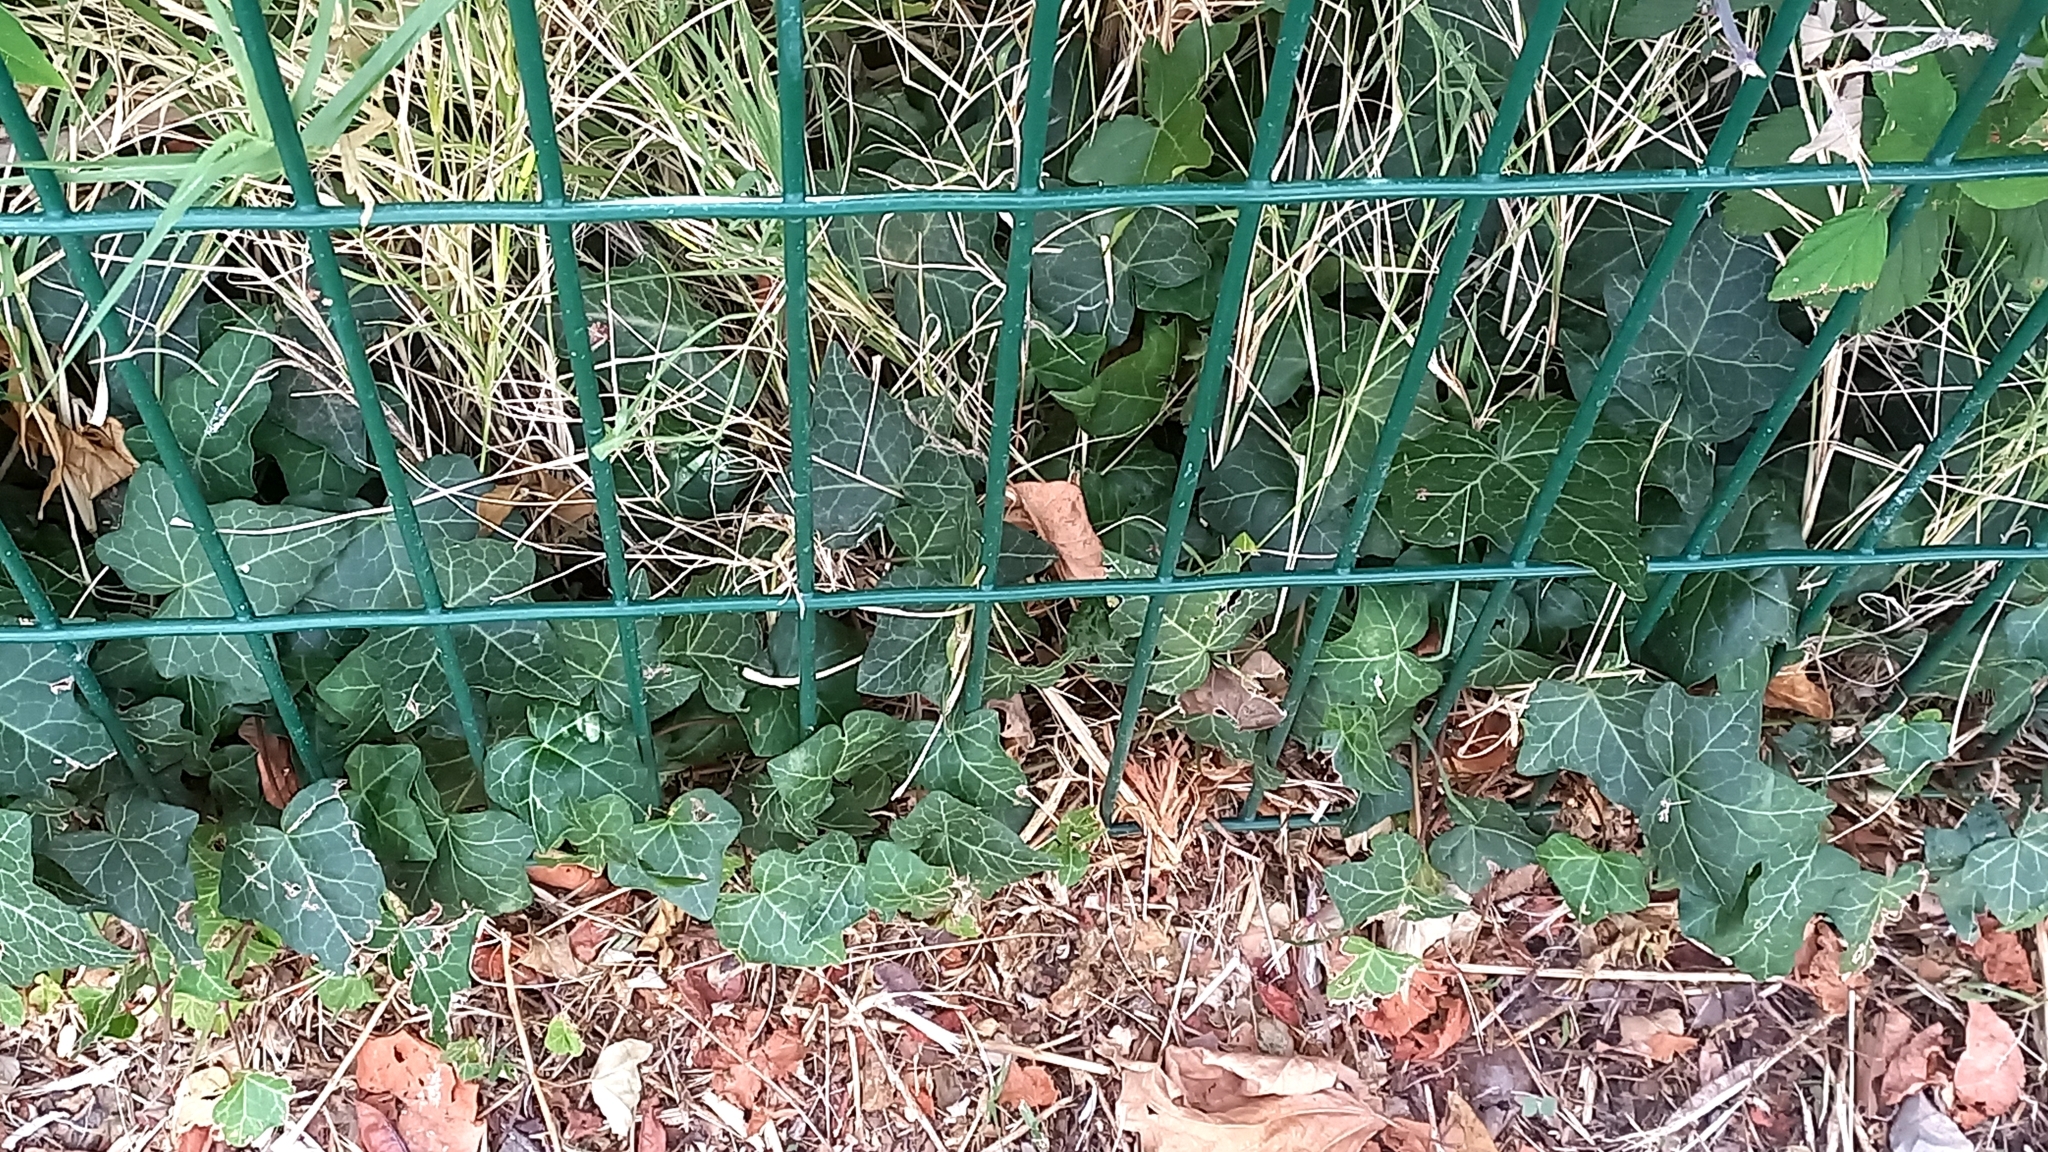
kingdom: Plantae
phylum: Tracheophyta
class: Magnoliopsida
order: Apiales
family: Araliaceae
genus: Hedera
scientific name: Hedera helix
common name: Ivy
